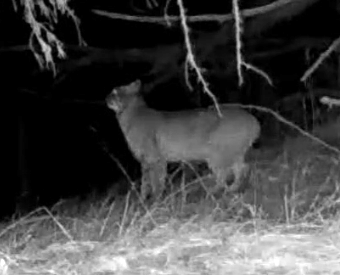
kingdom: Animalia
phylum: Chordata
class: Mammalia
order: Carnivora
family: Felidae
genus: Lynx
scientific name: Lynx rufus
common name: Bobcat
